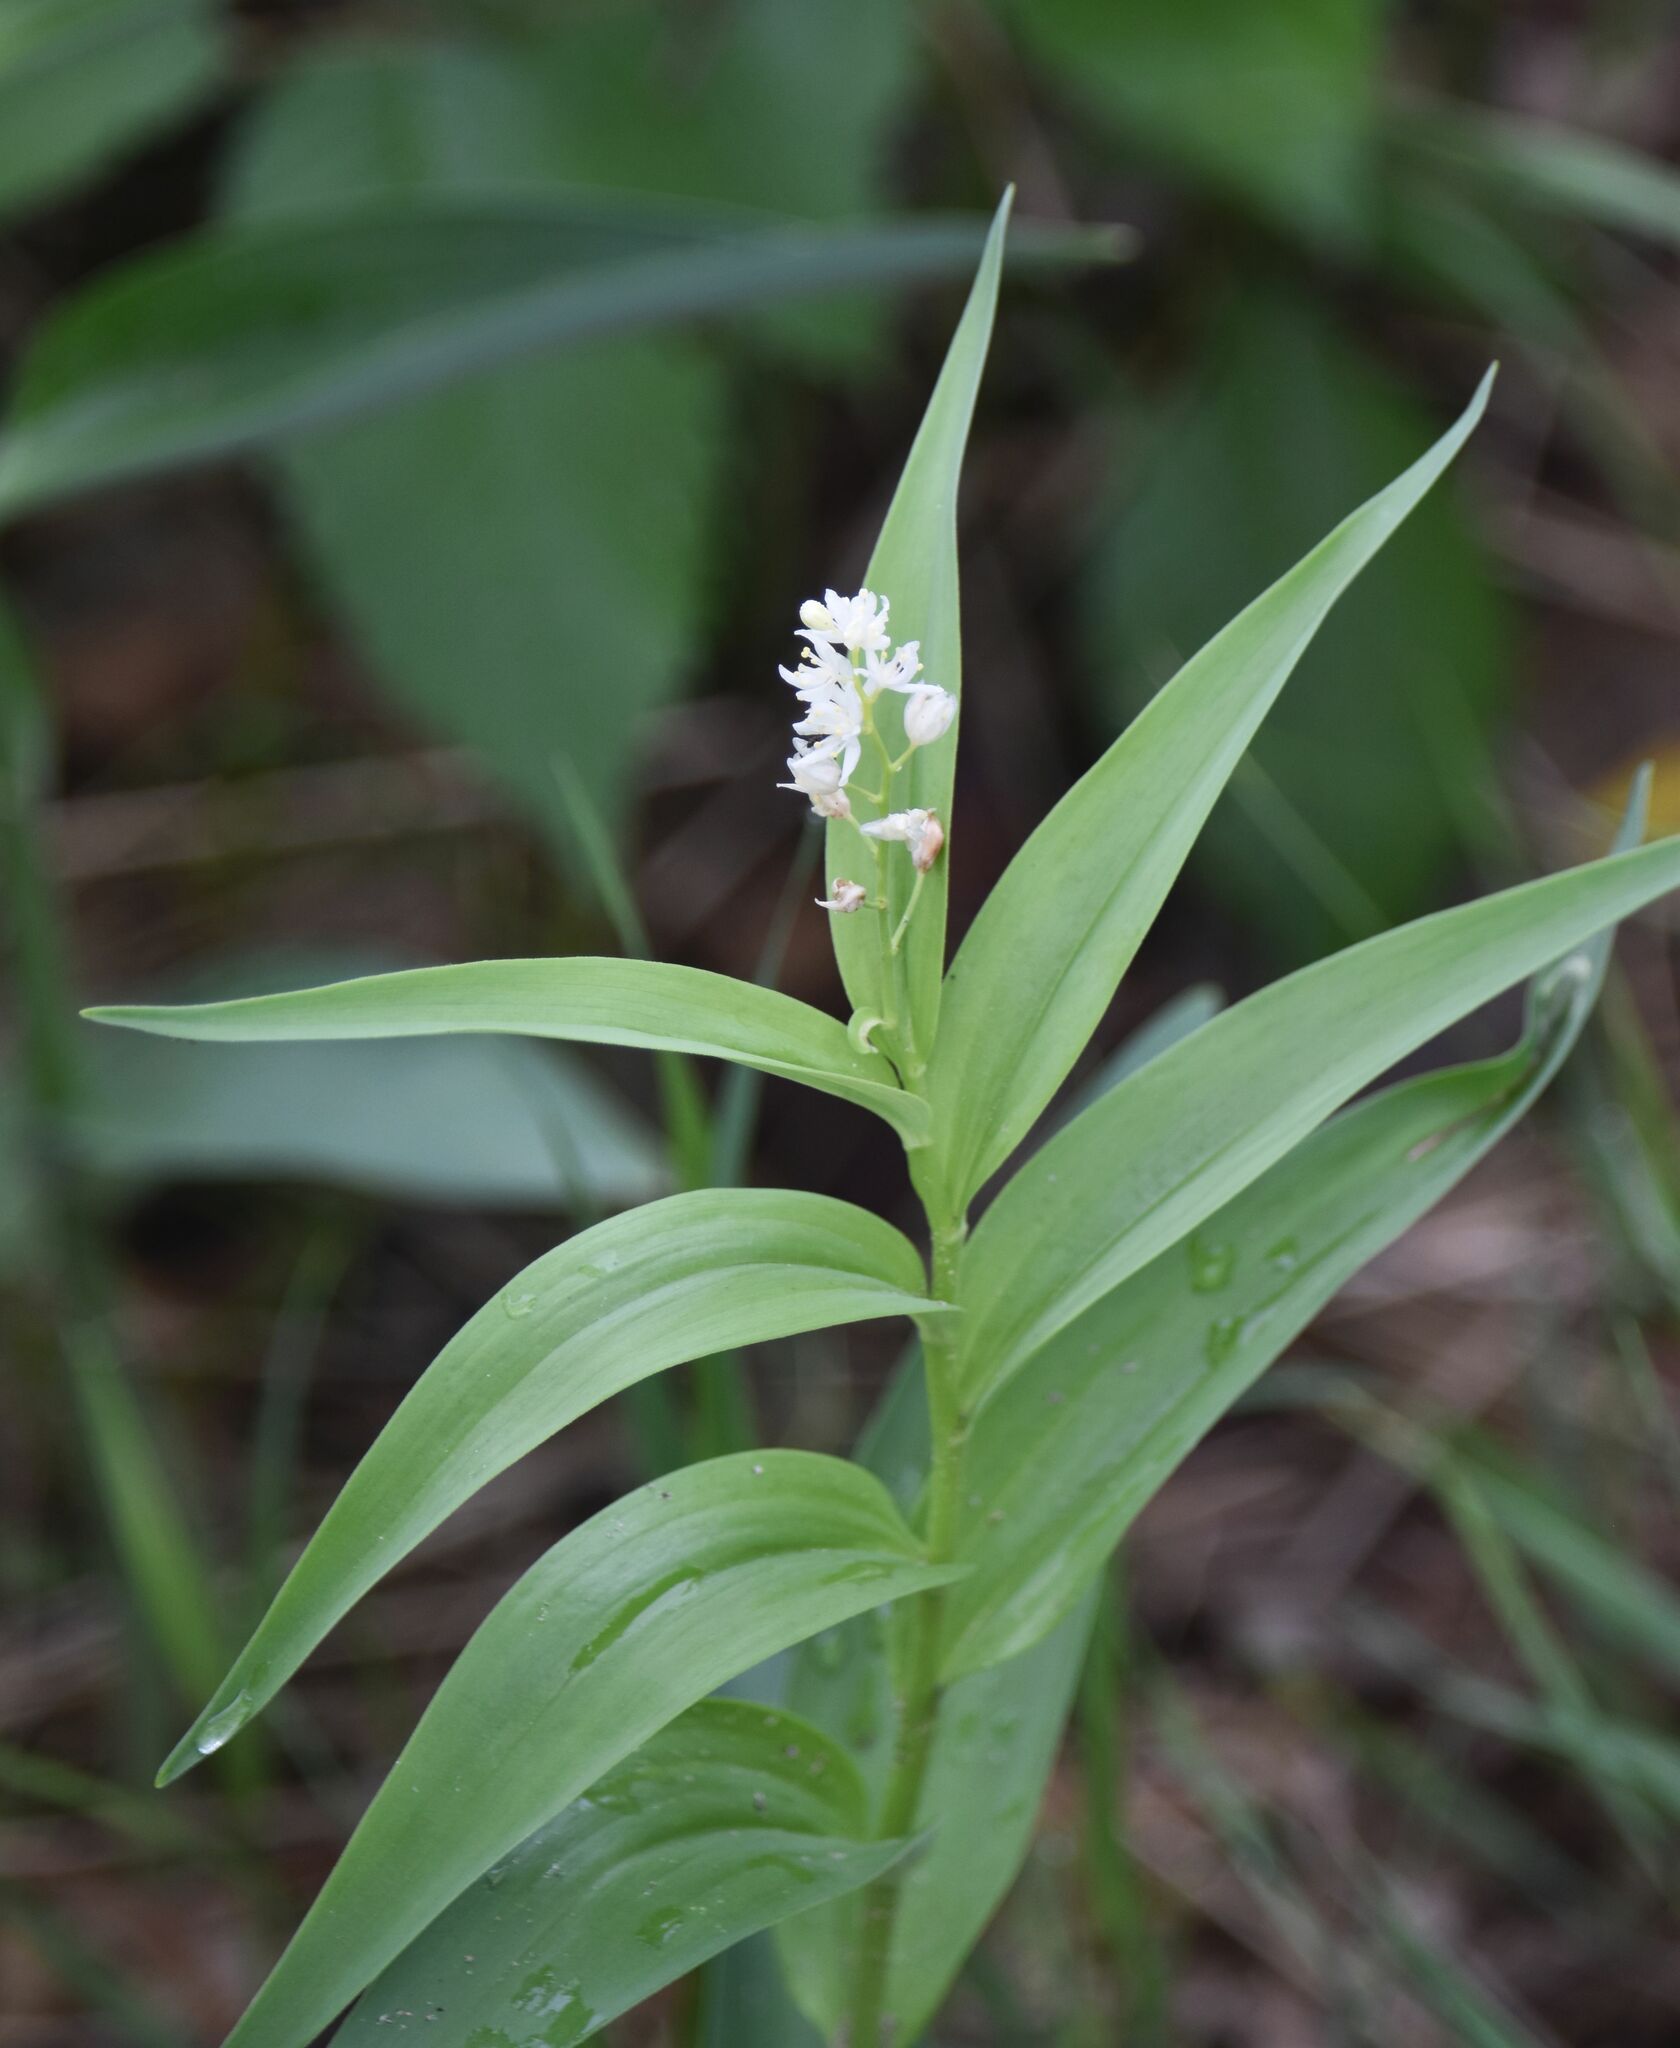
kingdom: Plantae
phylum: Tracheophyta
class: Liliopsida
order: Asparagales
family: Asparagaceae
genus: Maianthemum
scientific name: Maianthemum stellatum
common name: Little false solomon's seal
